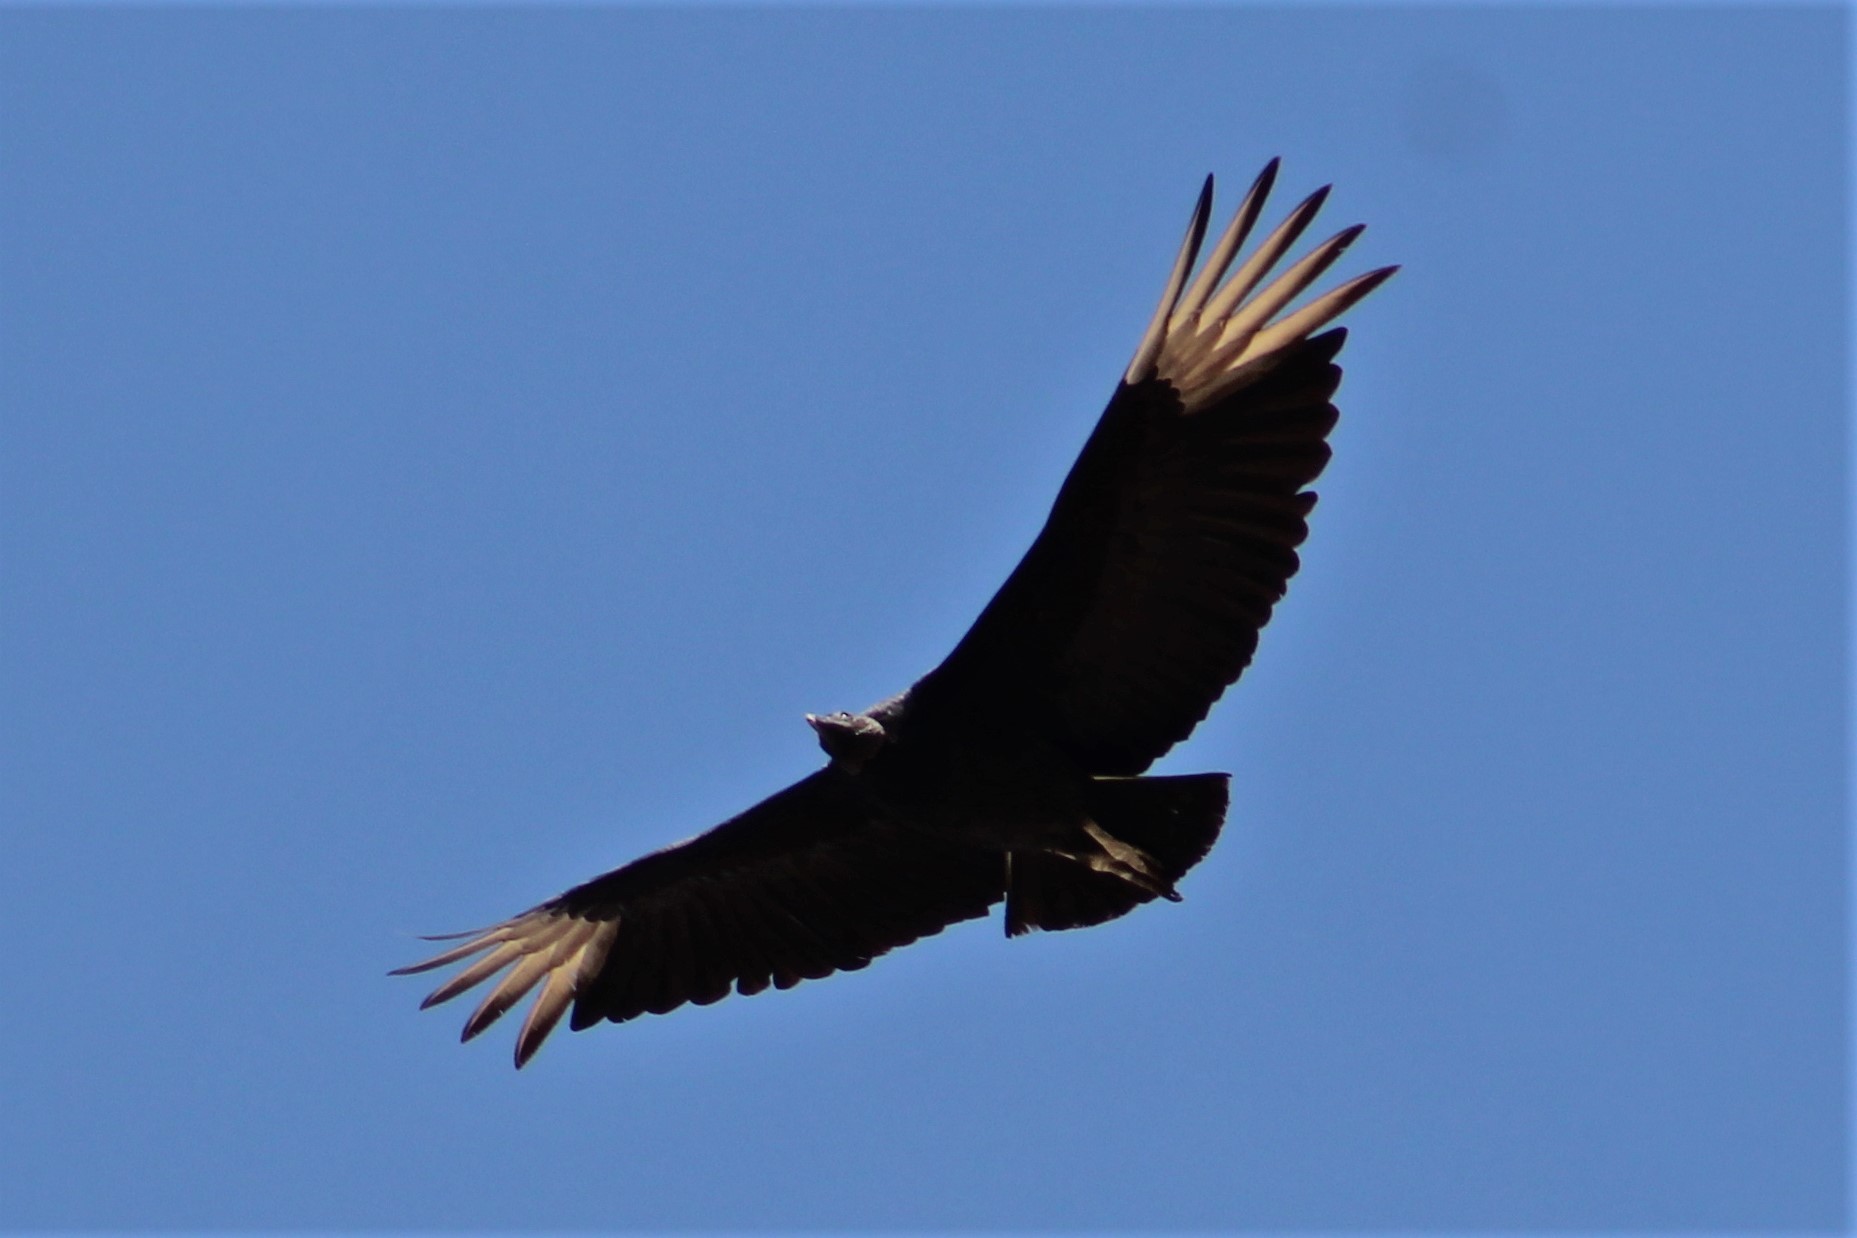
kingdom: Animalia
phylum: Chordata
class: Aves
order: Accipitriformes
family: Cathartidae
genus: Coragyps
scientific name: Coragyps atratus
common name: Black vulture
